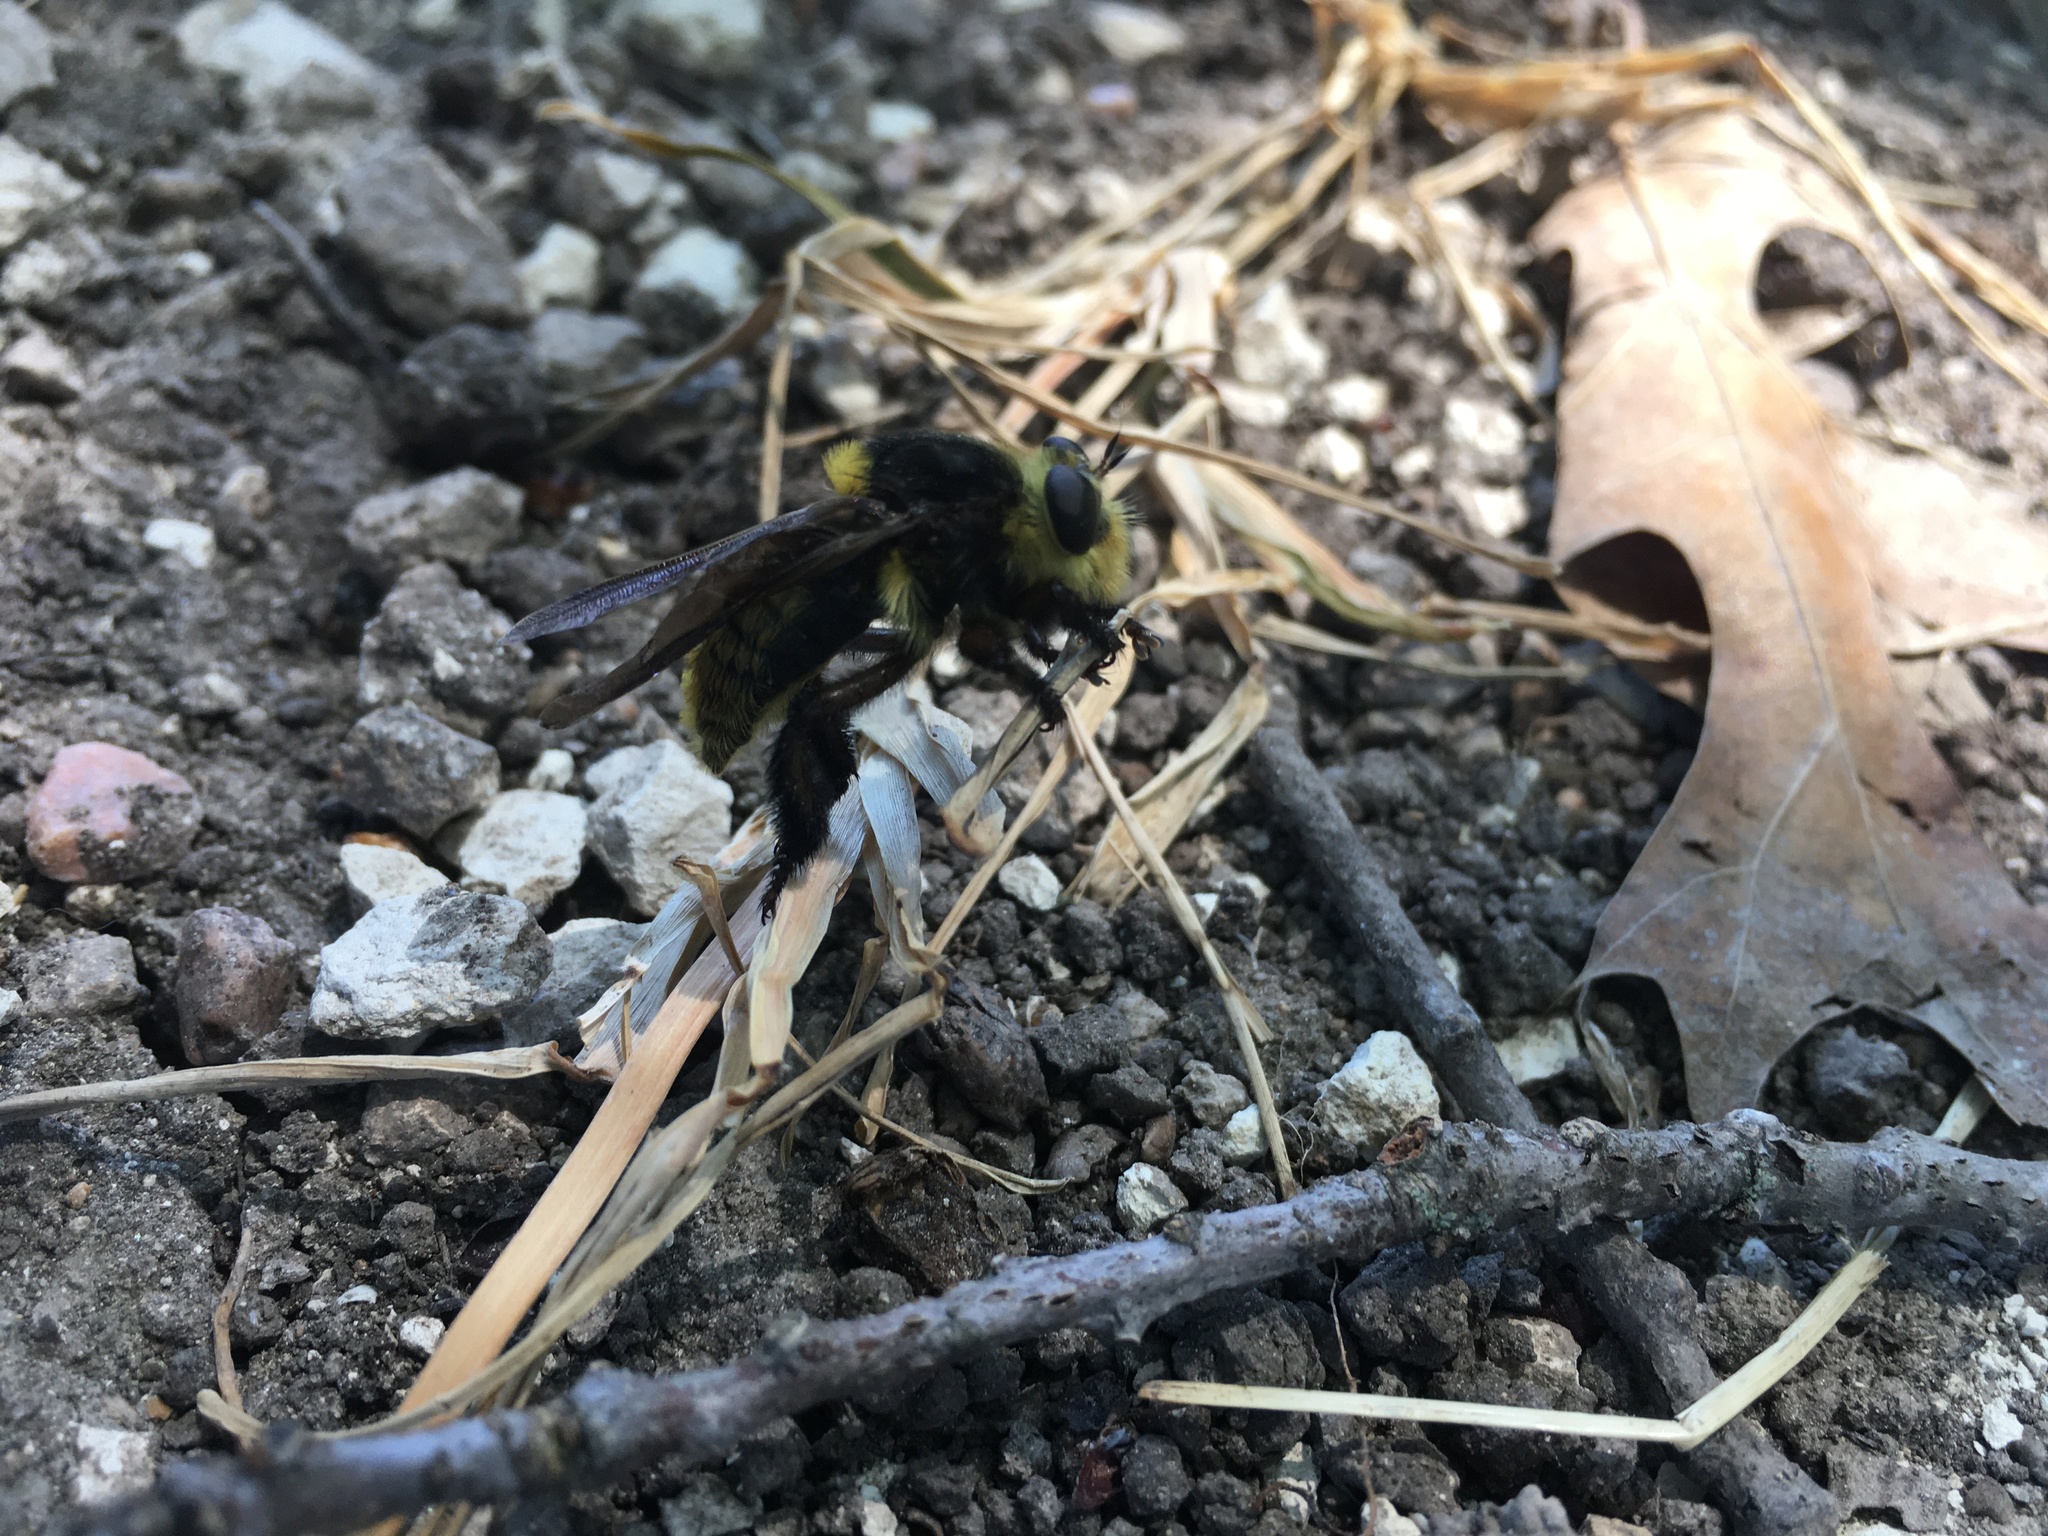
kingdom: Animalia
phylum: Arthropoda
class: Insecta
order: Diptera
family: Asilidae
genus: Mallophora
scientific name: Mallophora fautrix
